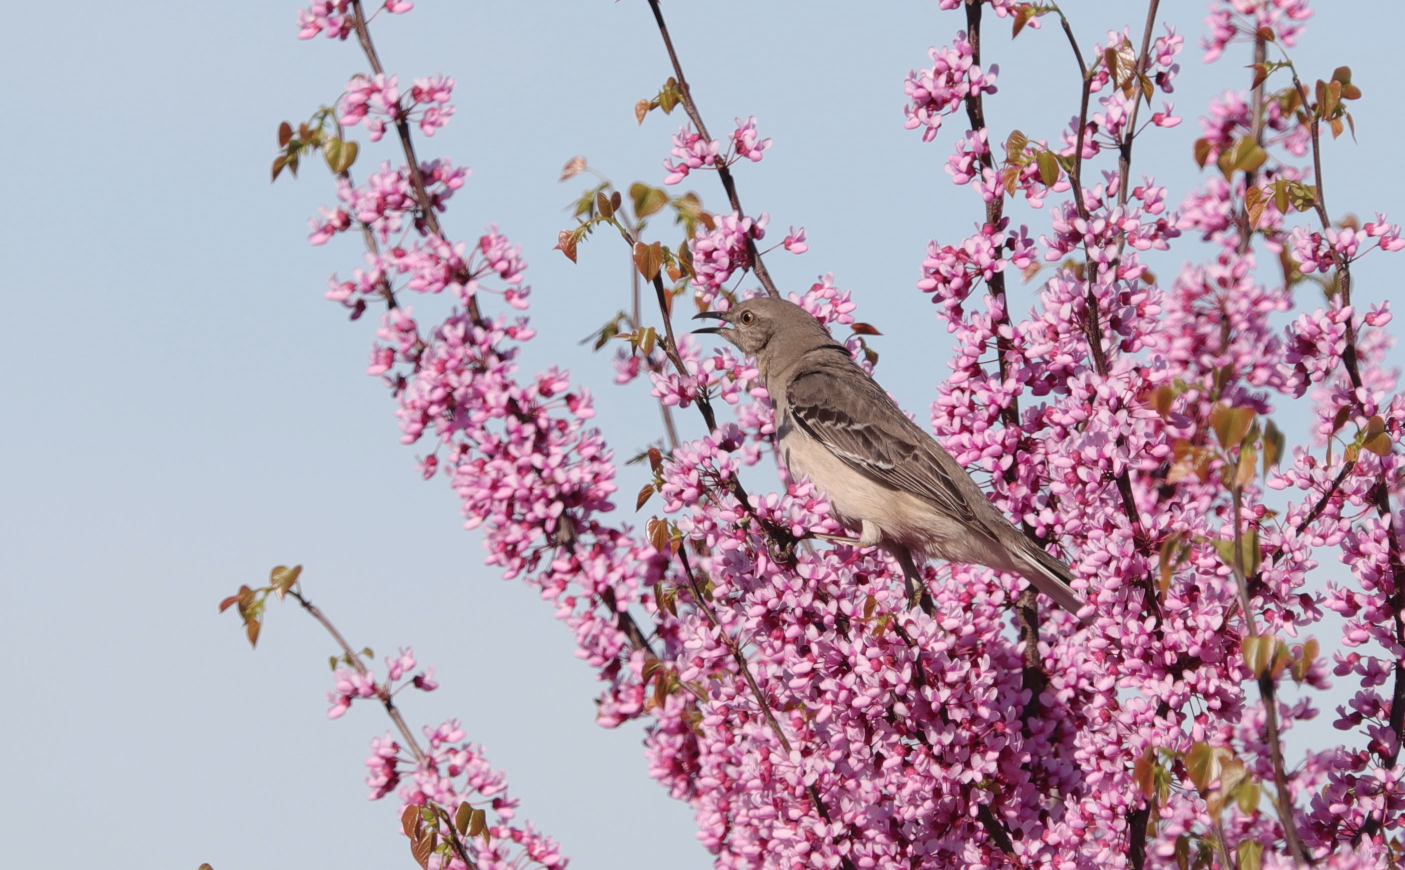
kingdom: Animalia
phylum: Chordata
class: Aves
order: Passeriformes
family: Mimidae
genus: Mimus
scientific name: Mimus polyglottos
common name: Northern mockingbird
